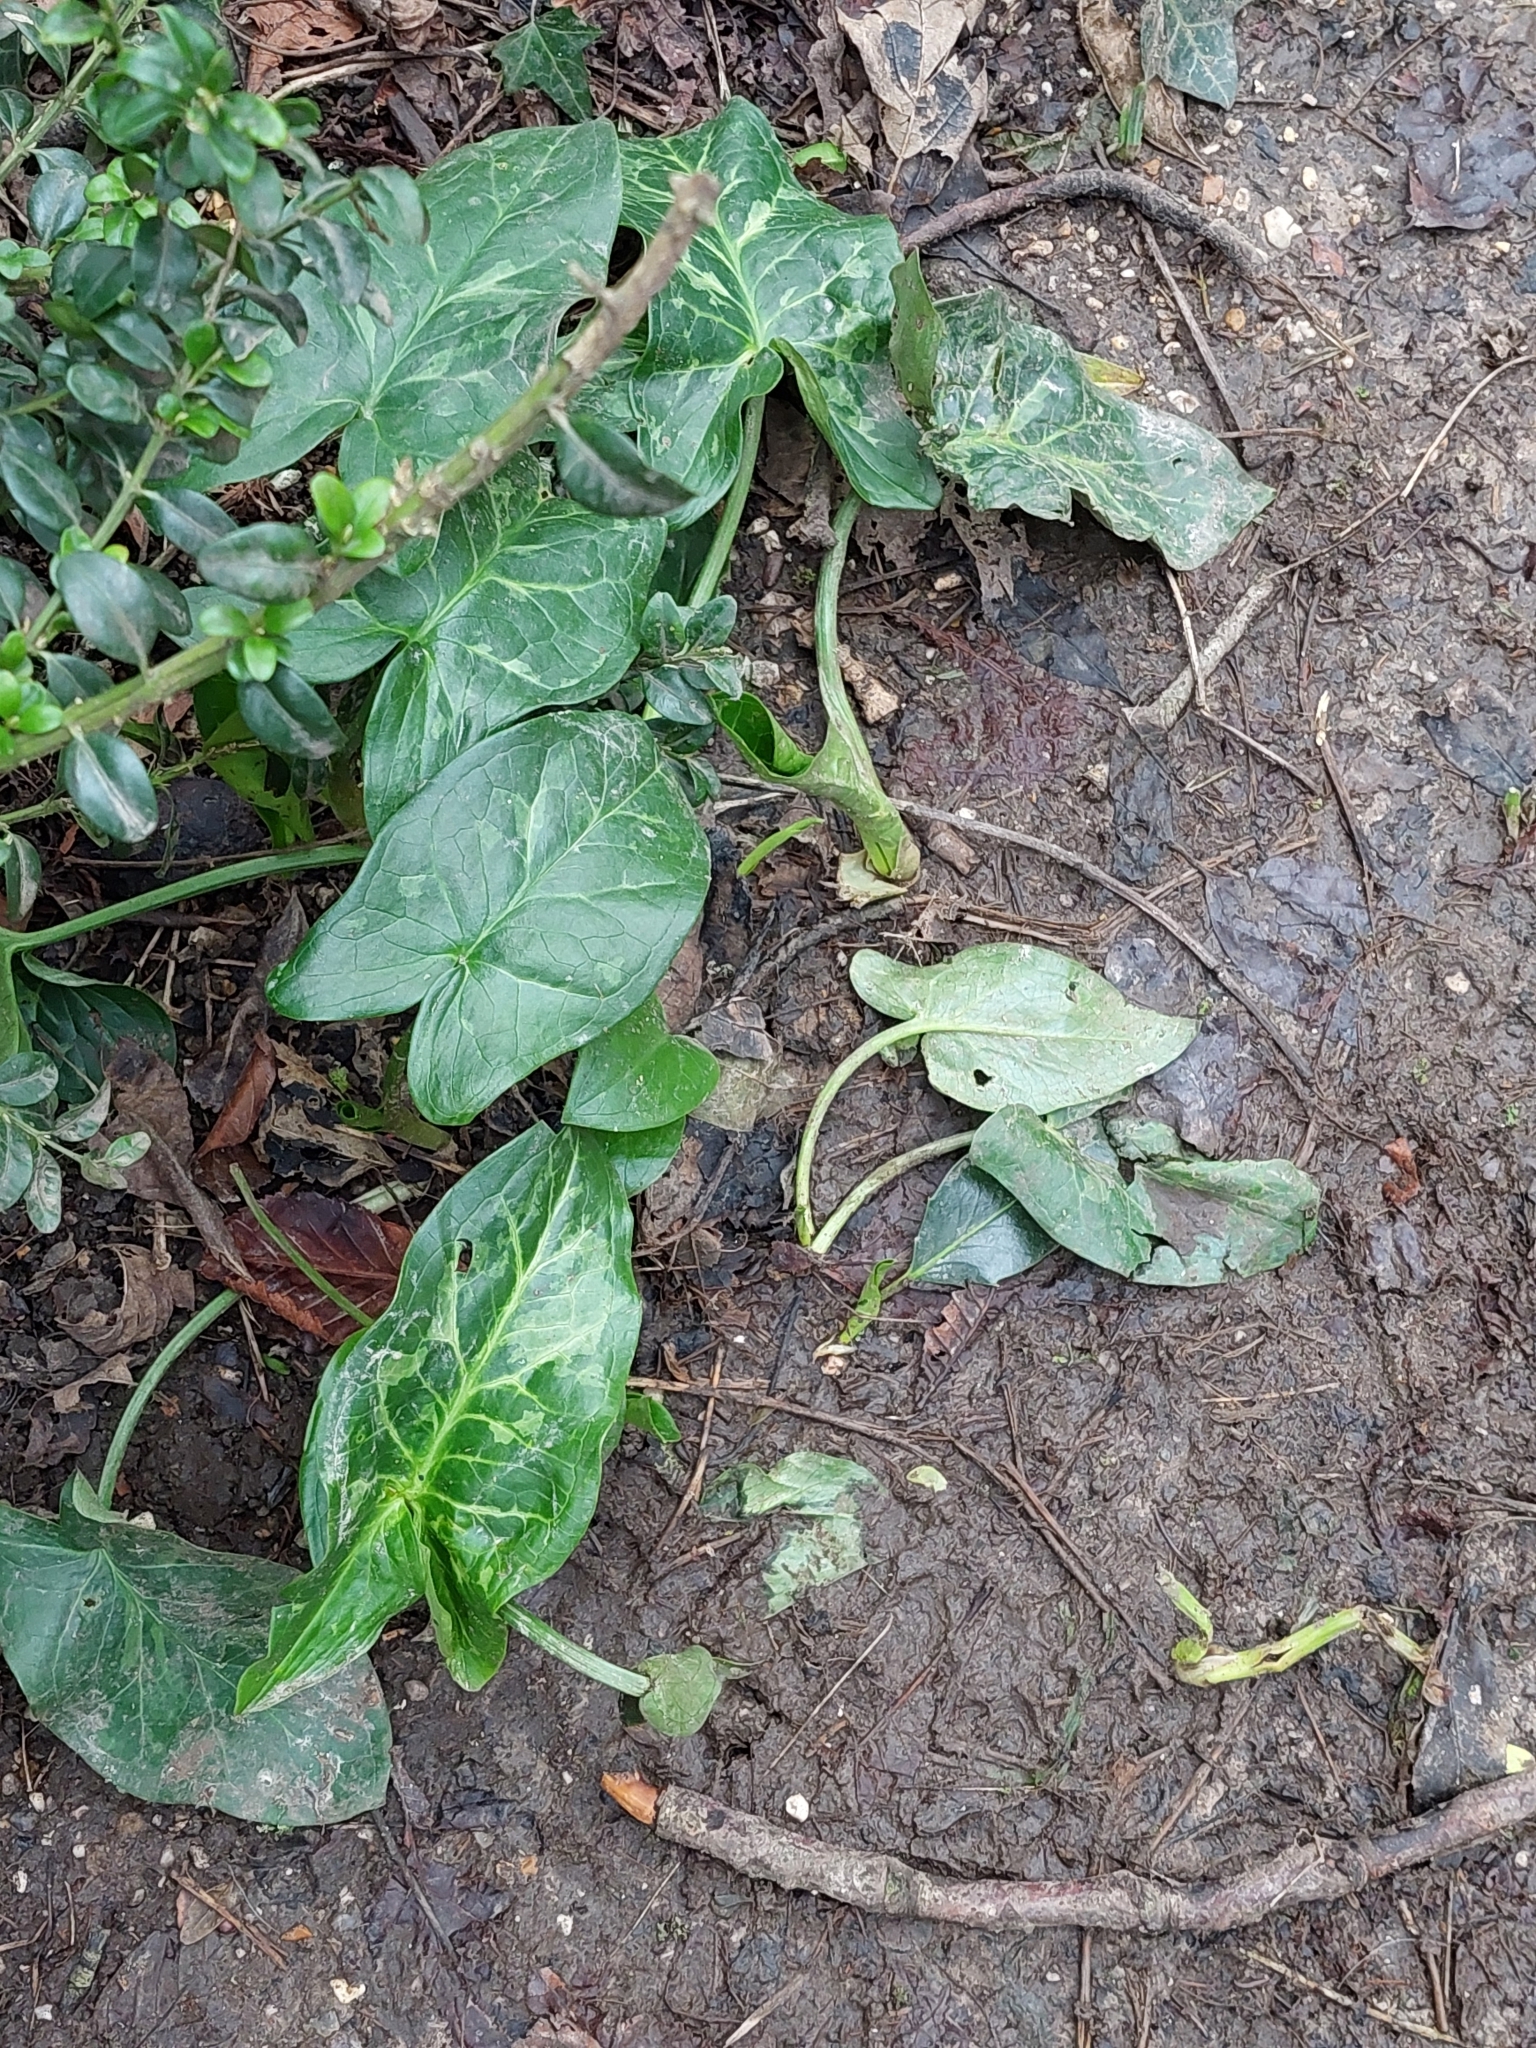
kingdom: Plantae
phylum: Tracheophyta
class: Liliopsida
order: Alismatales
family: Araceae
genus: Arum
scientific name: Arum italicum
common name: Italian lords-and-ladies
